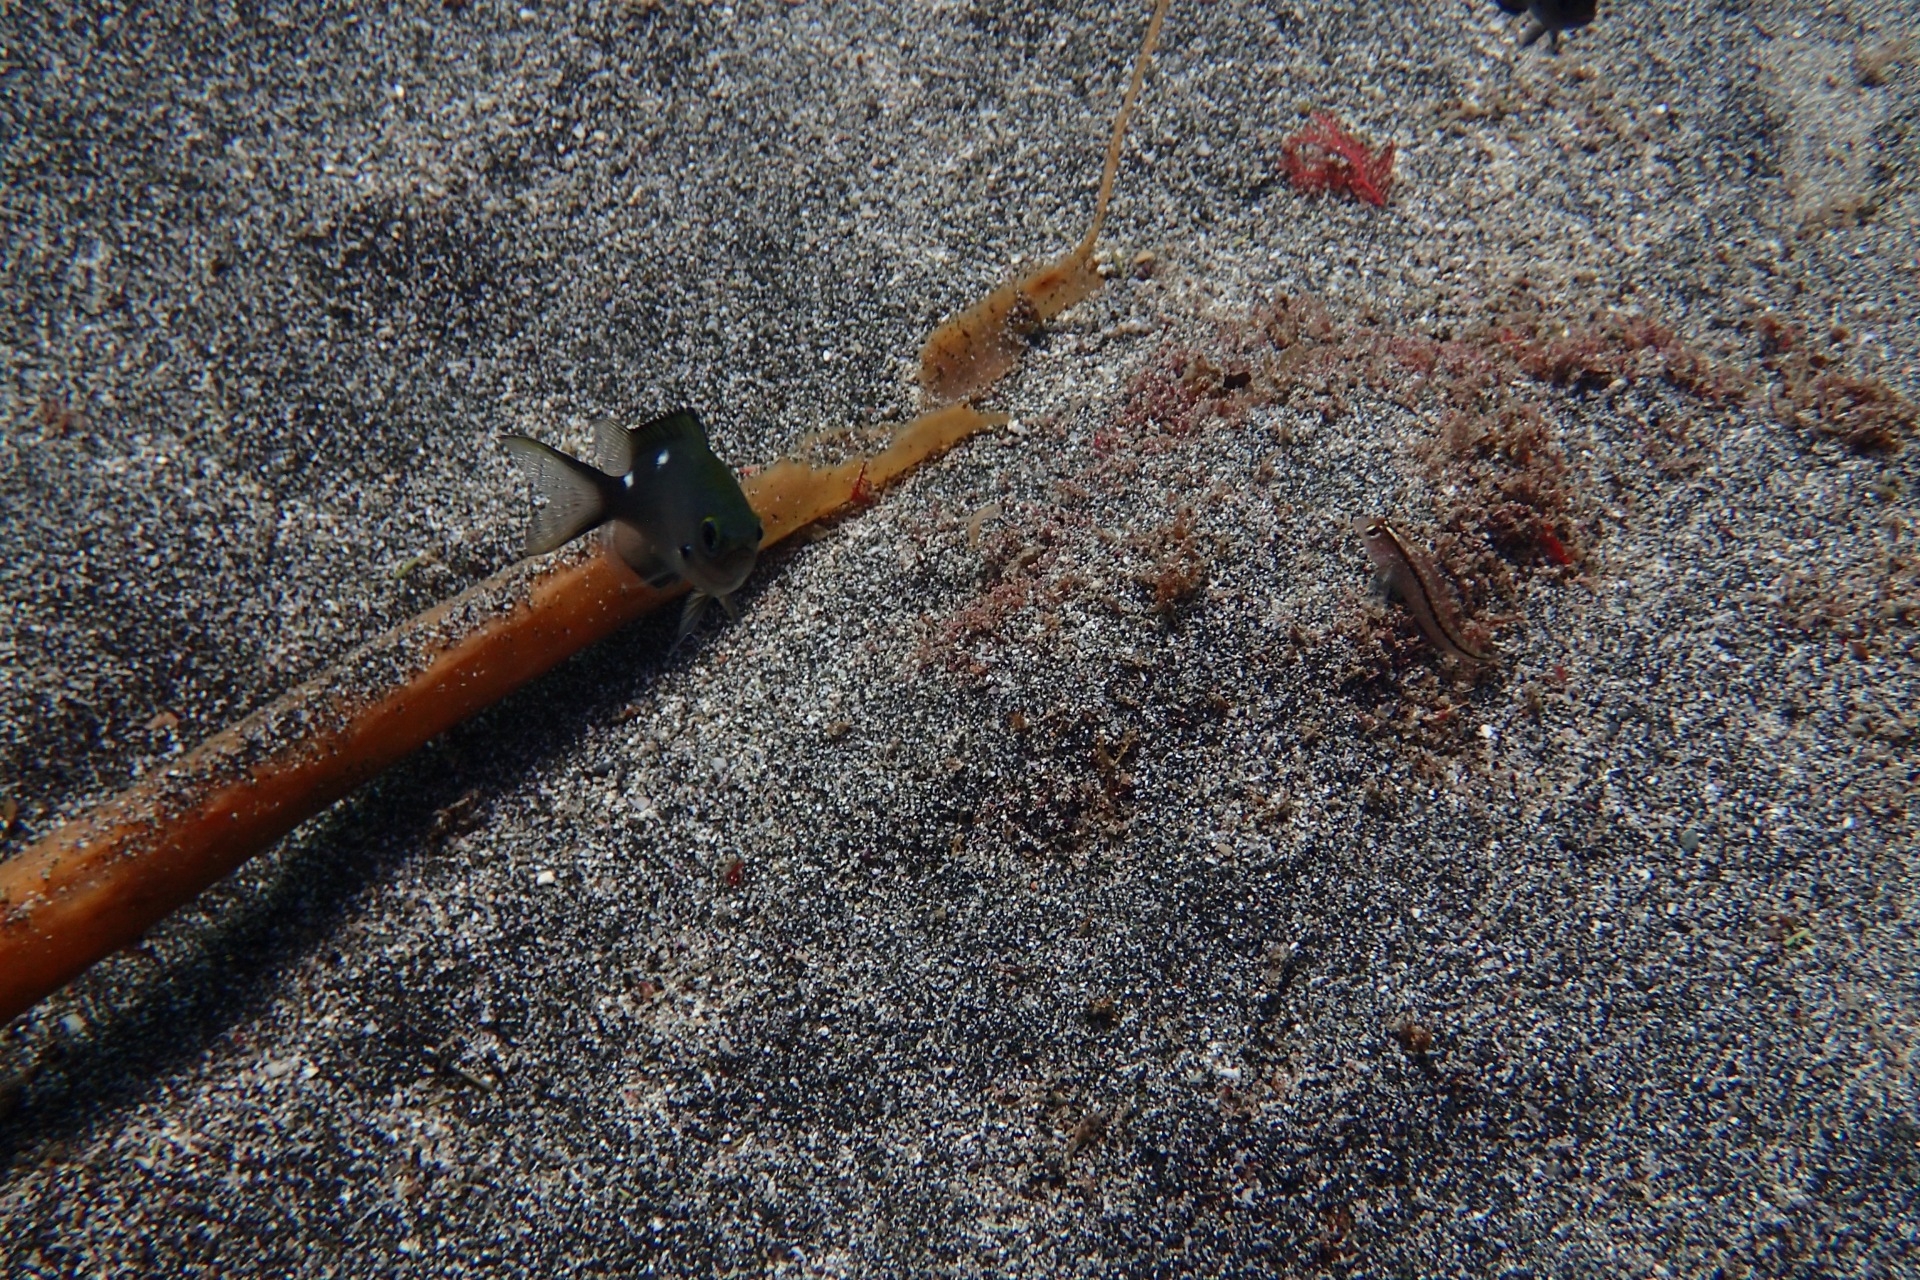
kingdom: Animalia
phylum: Chordata
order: Perciformes
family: Pomacentridae
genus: Chromis
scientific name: Chromis dispilus
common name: Demoiselle
